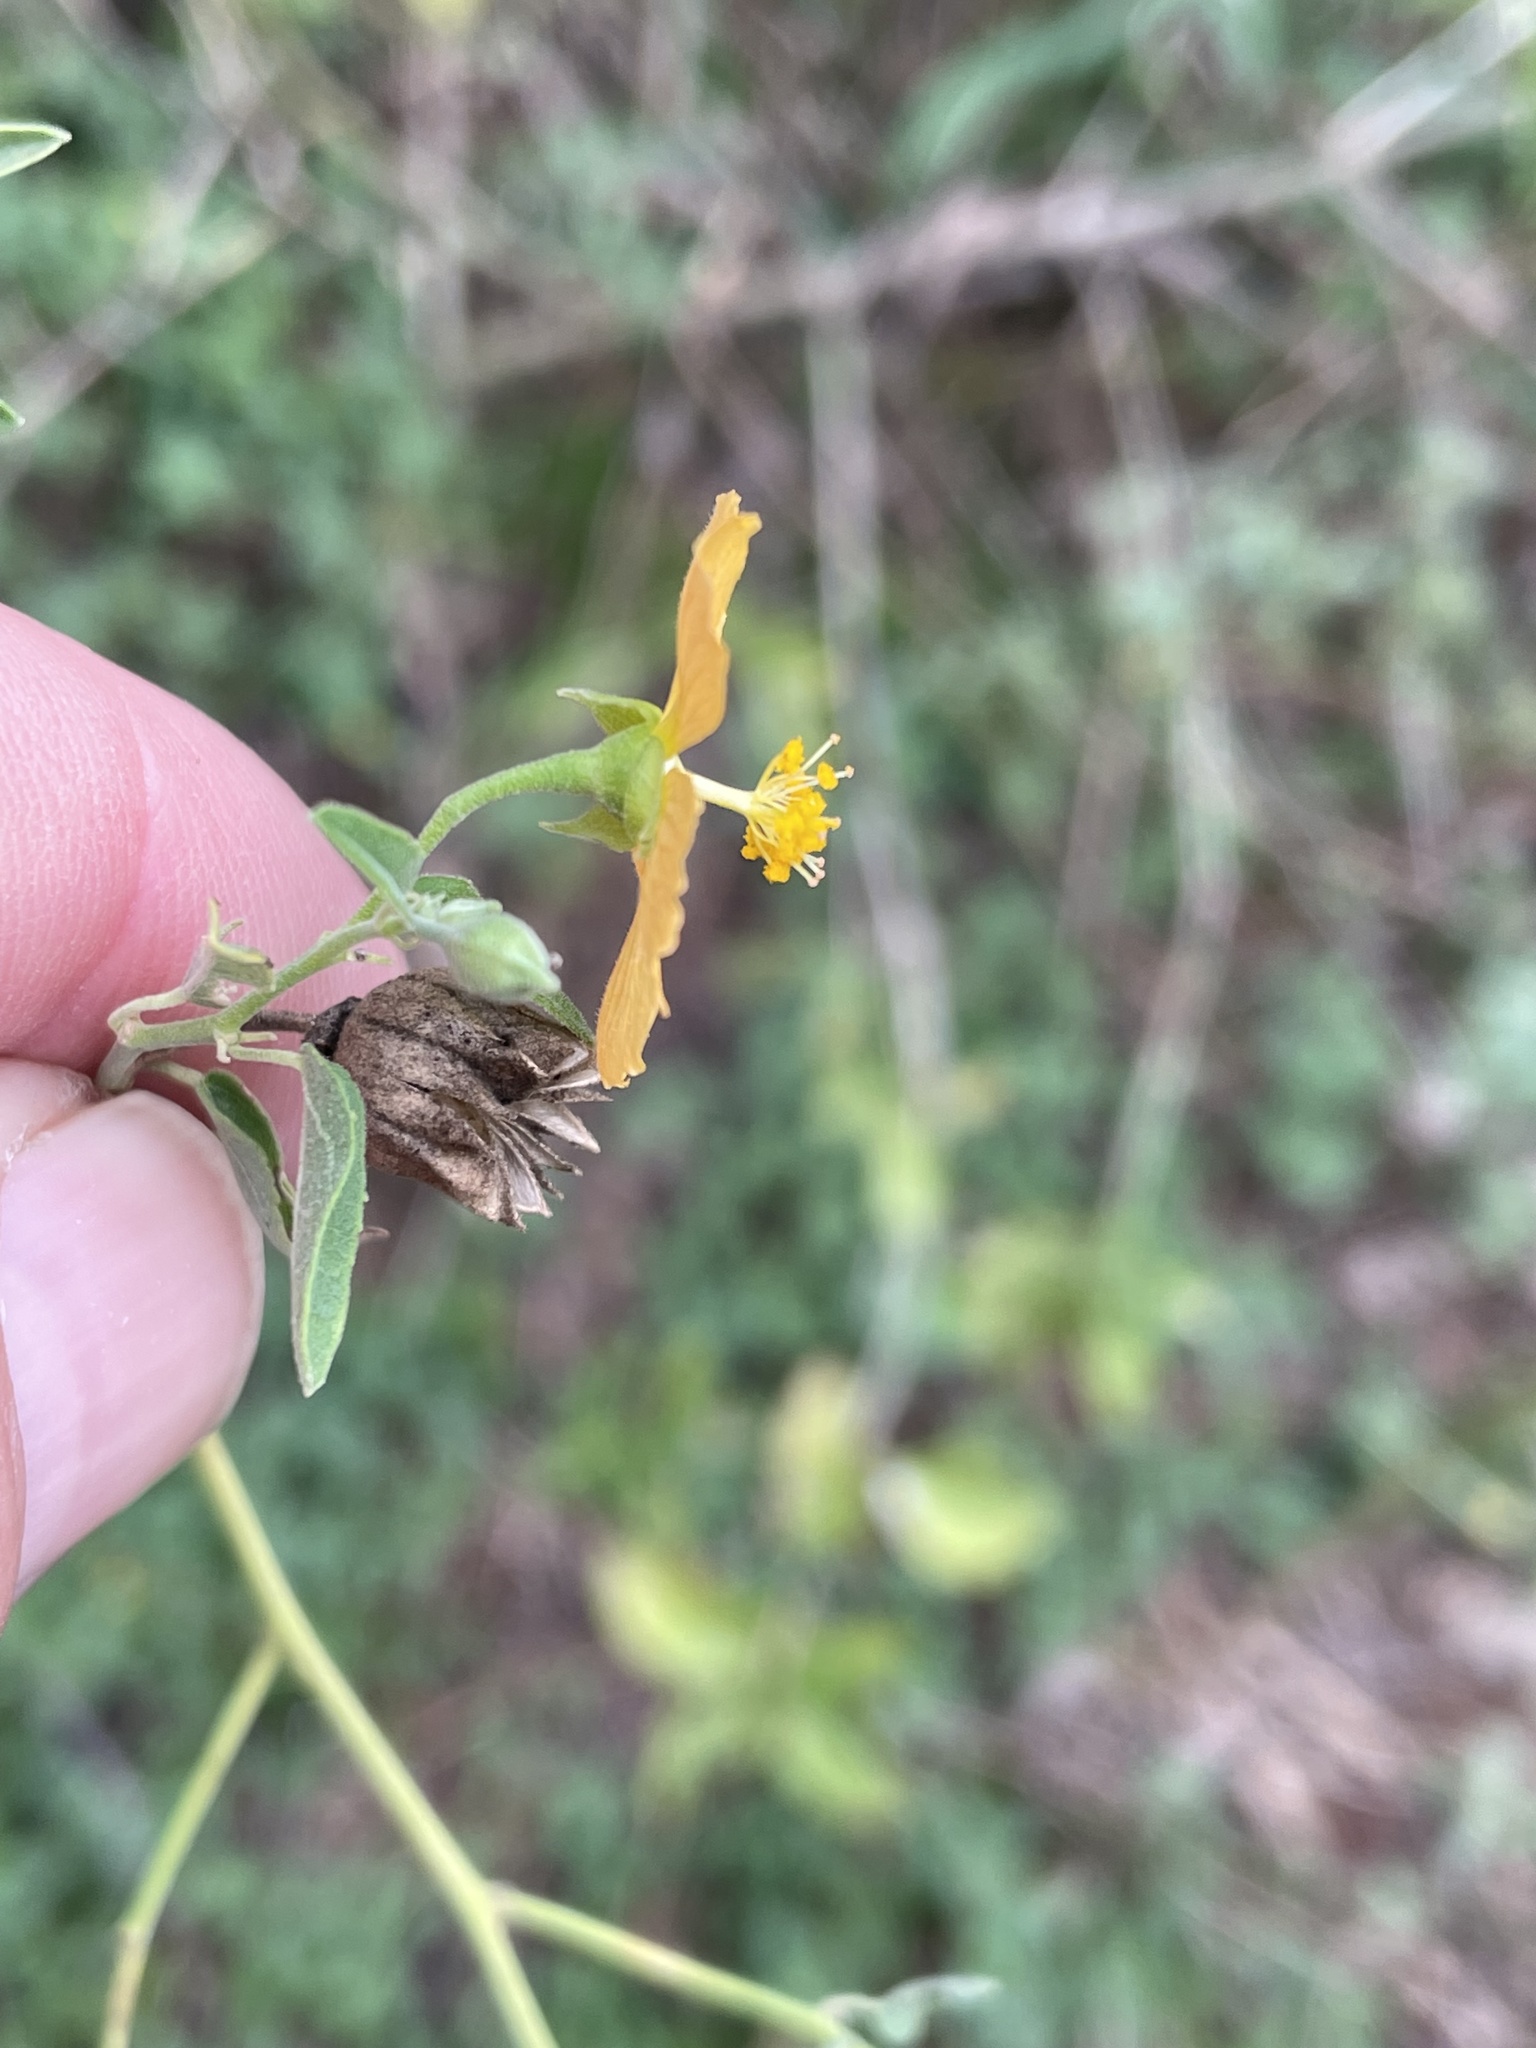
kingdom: Plantae
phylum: Tracheophyta
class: Magnoliopsida
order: Malvales
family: Malvaceae
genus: Abutilon
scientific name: Abutilon fruticosum
